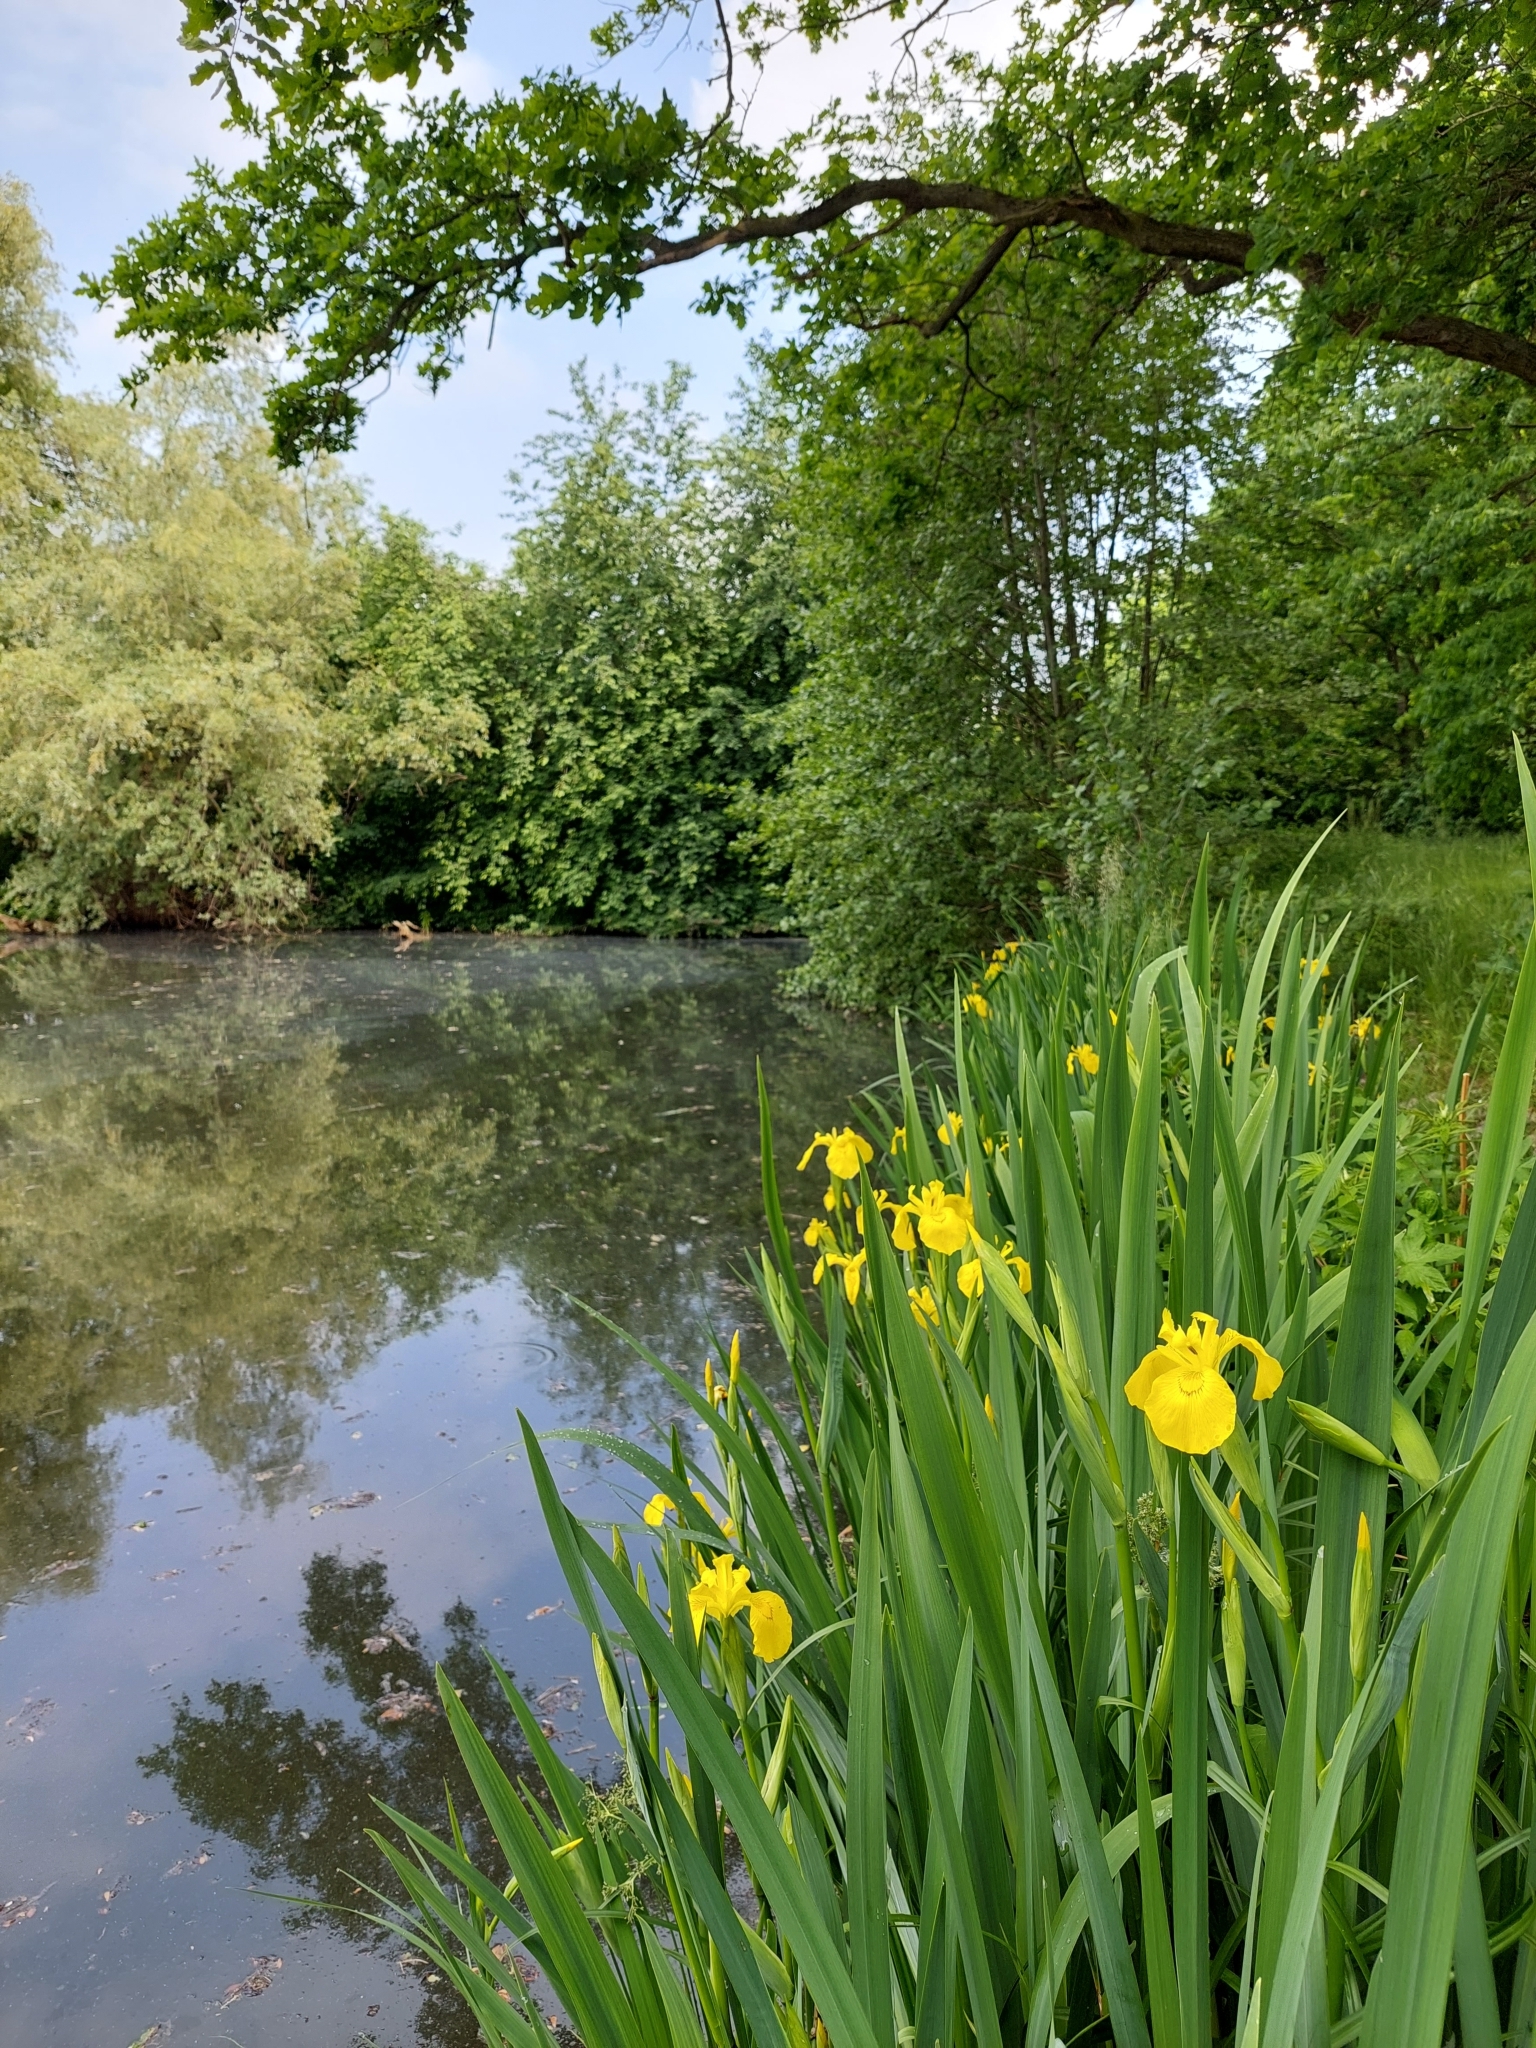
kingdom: Plantae
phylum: Tracheophyta
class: Liliopsida
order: Asparagales
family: Iridaceae
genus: Iris
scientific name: Iris pseudacorus
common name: Yellow flag
